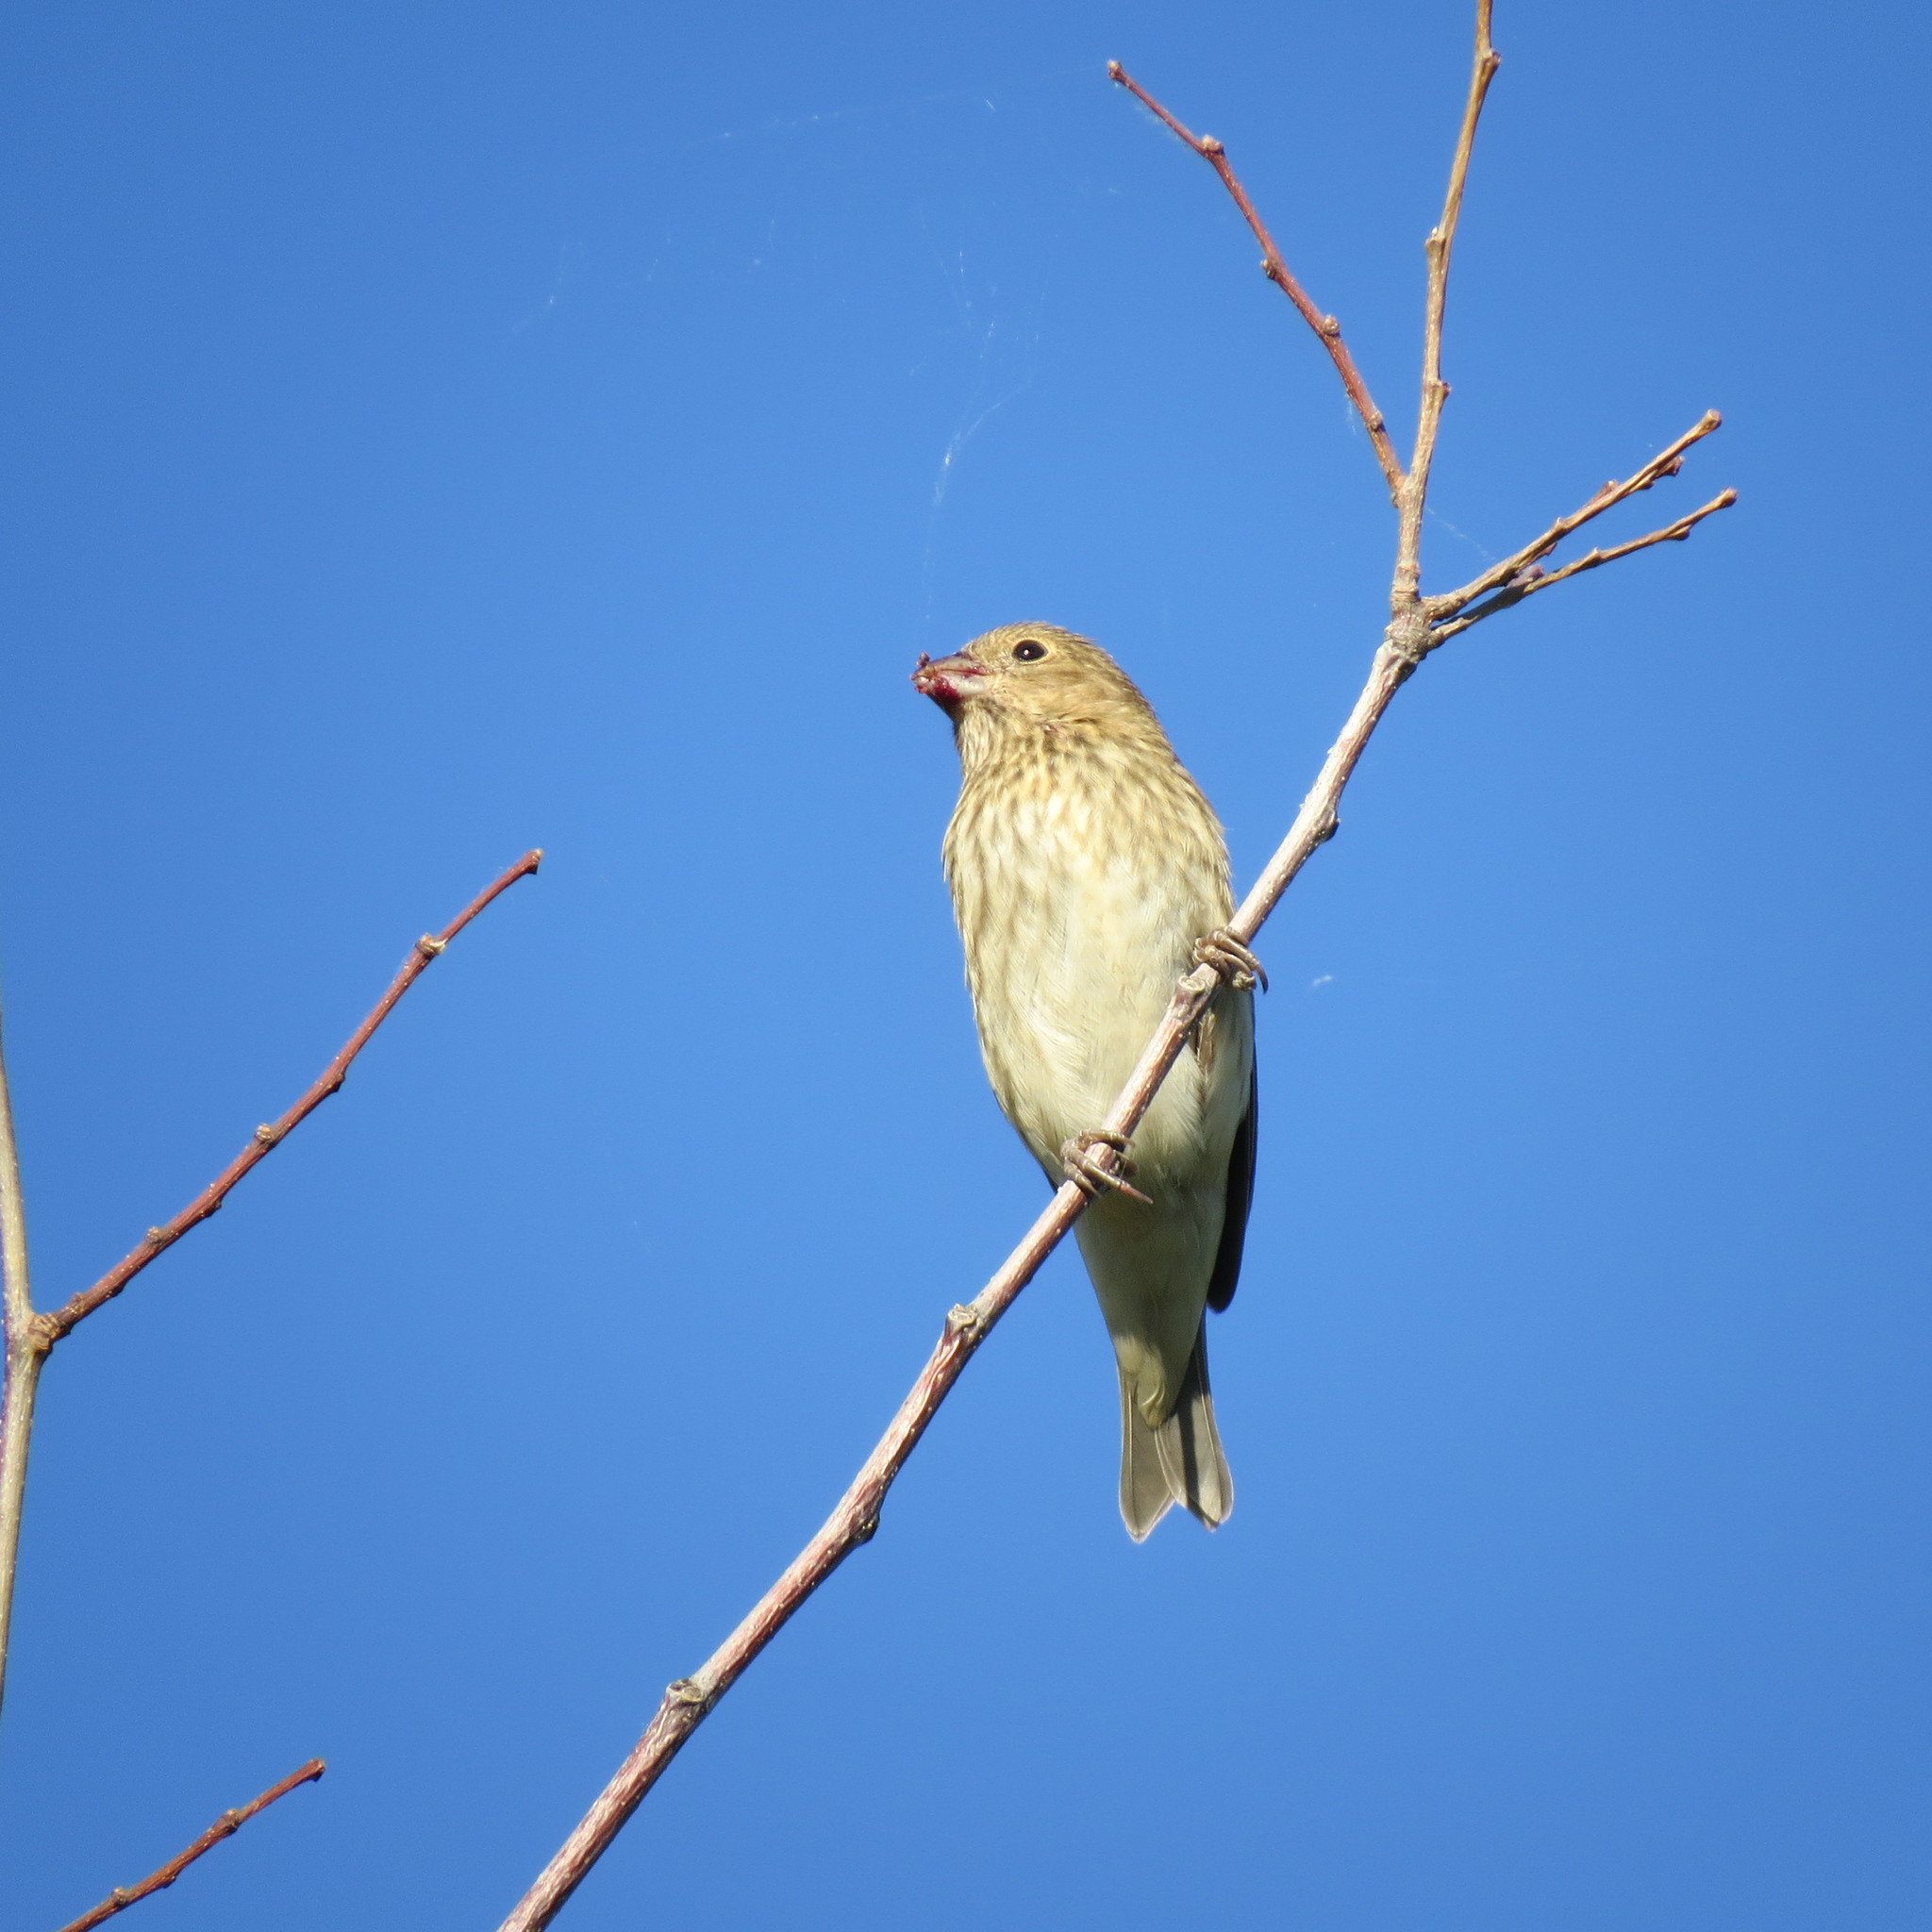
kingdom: Animalia
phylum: Chordata
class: Aves
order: Passeriformes
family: Fringillidae
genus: Carpodacus
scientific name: Carpodacus erythrinus
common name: Common rosefinch
